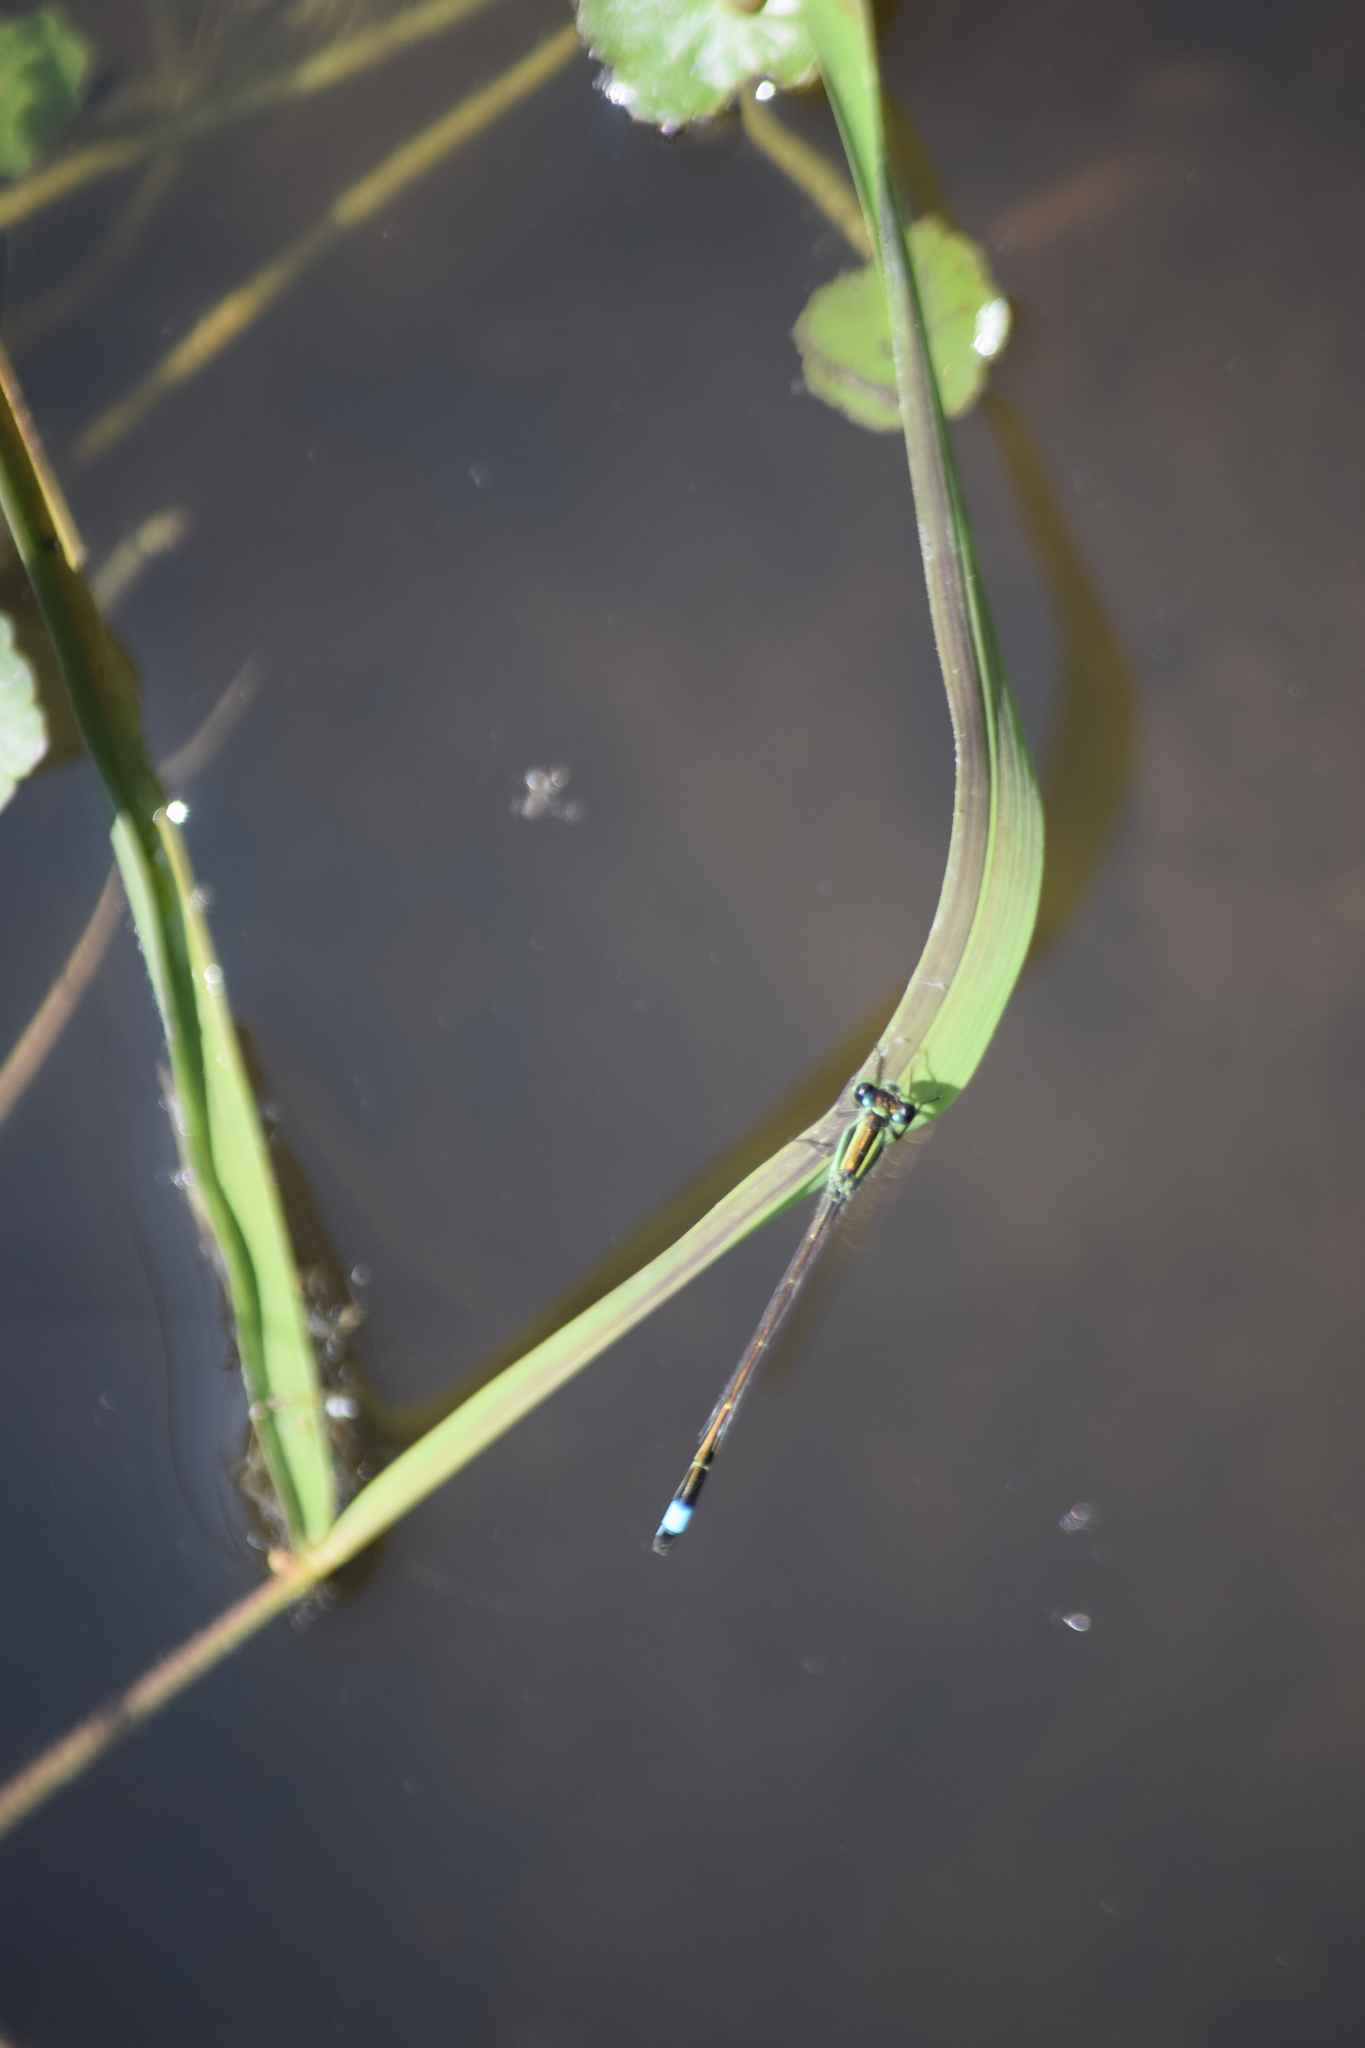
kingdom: Animalia
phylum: Arthropoda
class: Insecta
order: Odonata
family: Coenagrionidae
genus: Ischnura
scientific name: Ischnura ramburii
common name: Rambur's forktail
